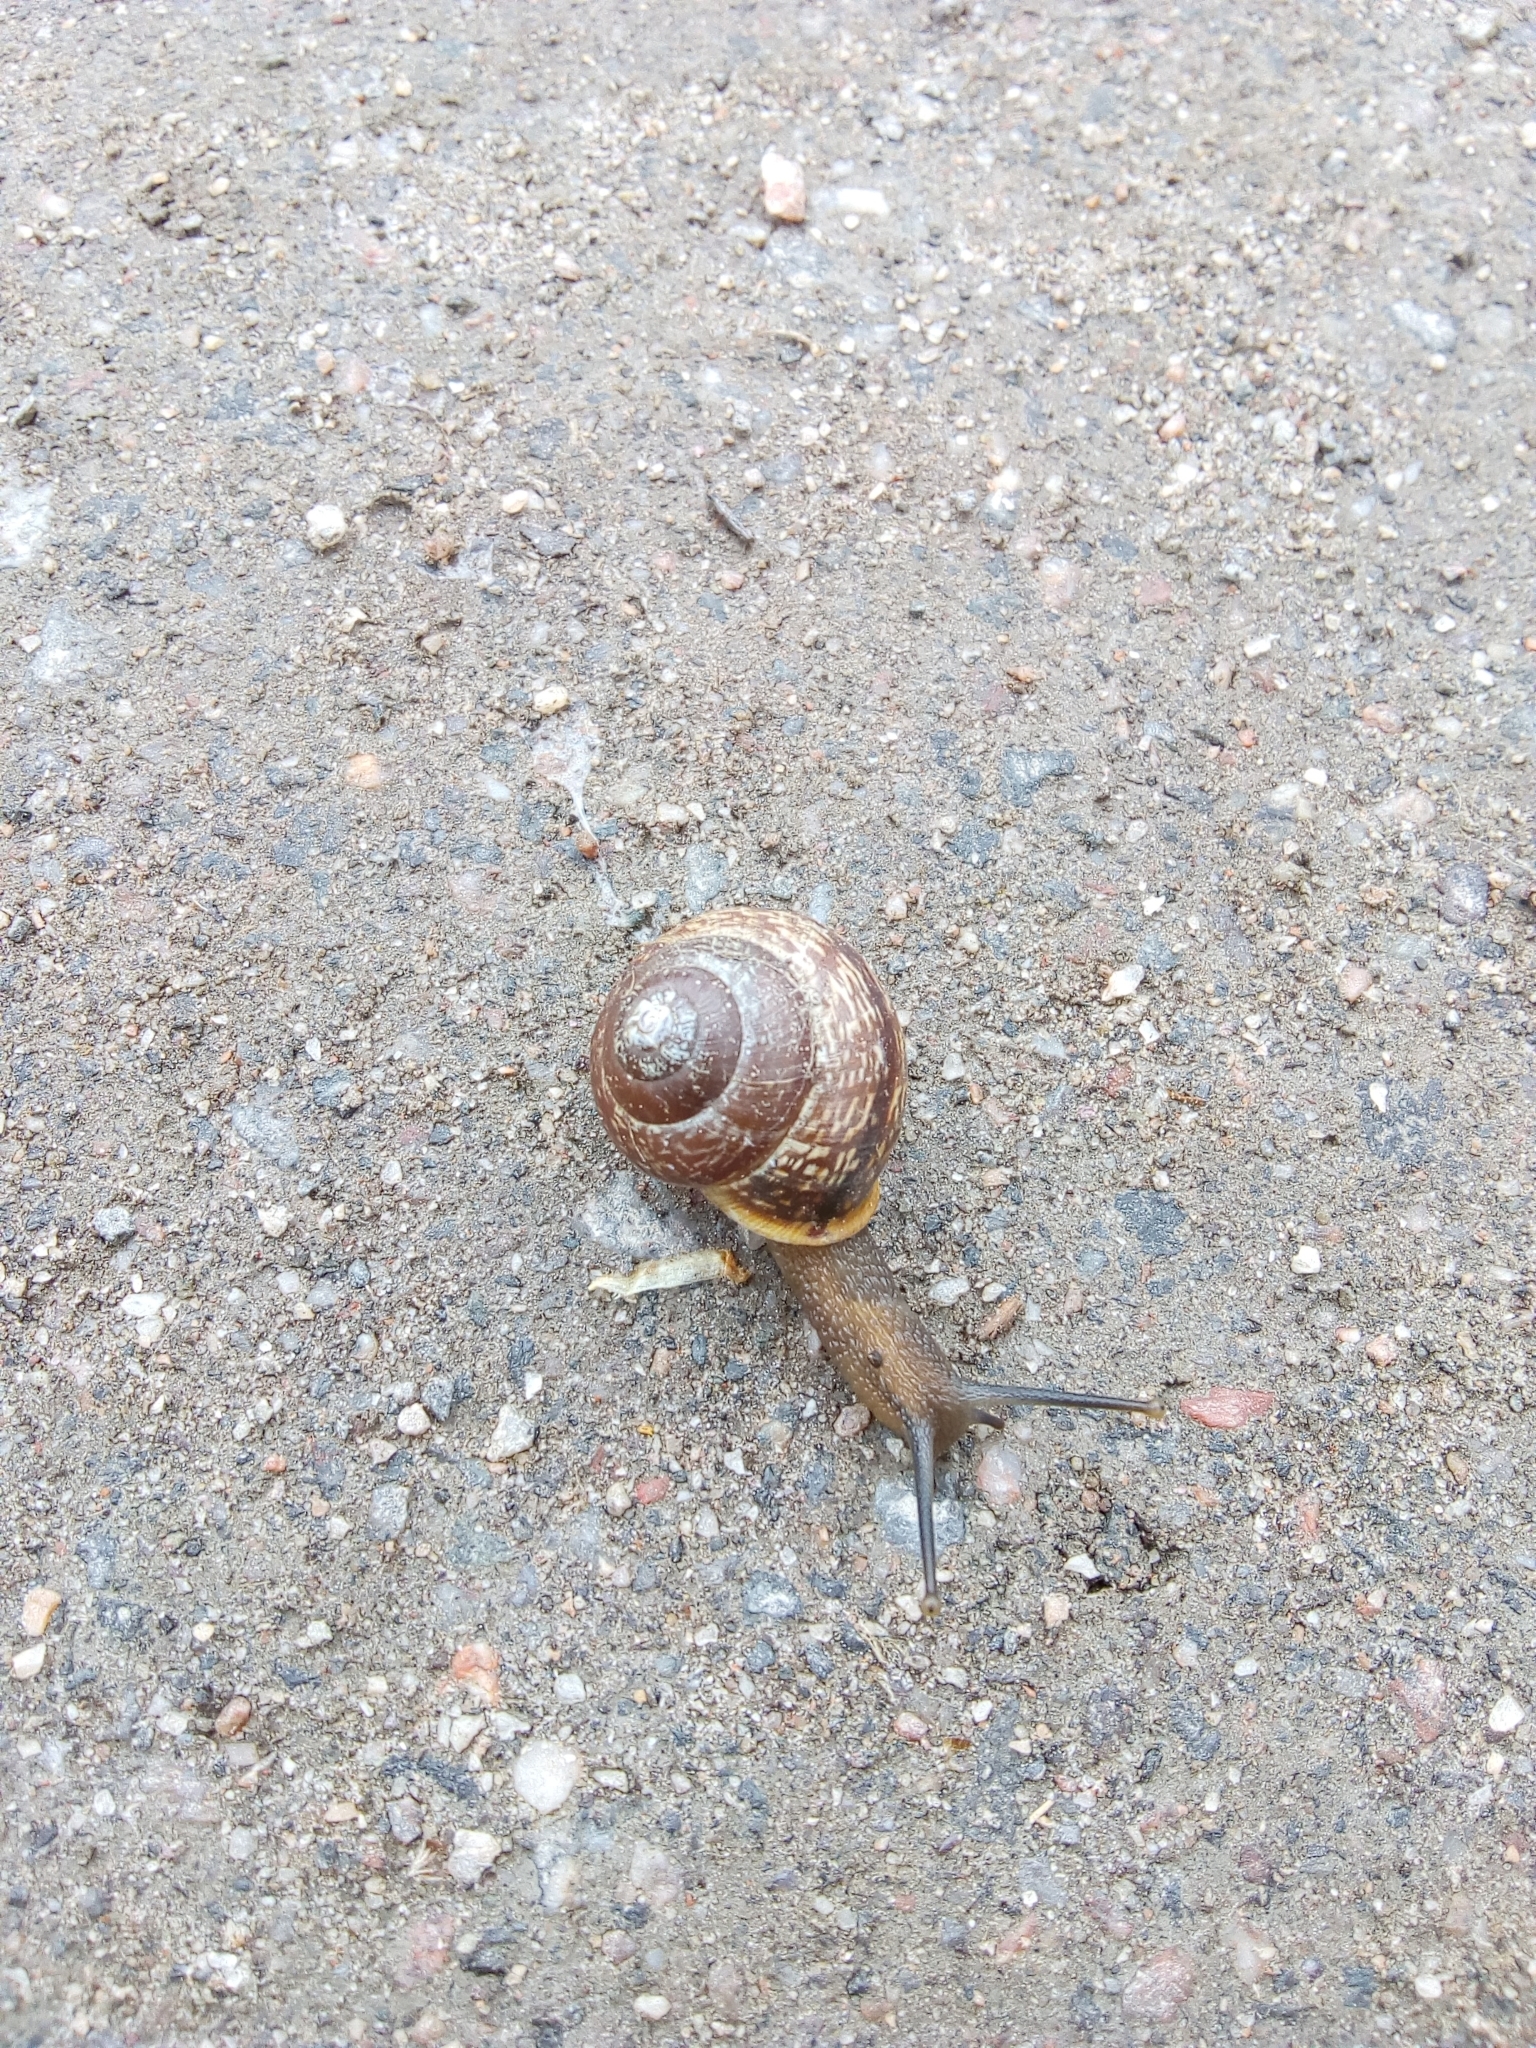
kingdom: Animalia
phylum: Mollusca
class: Gastropoda
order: Stylommatophora
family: Helicidae
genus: Arianta
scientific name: Arianta arbustorum
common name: Copse snail
